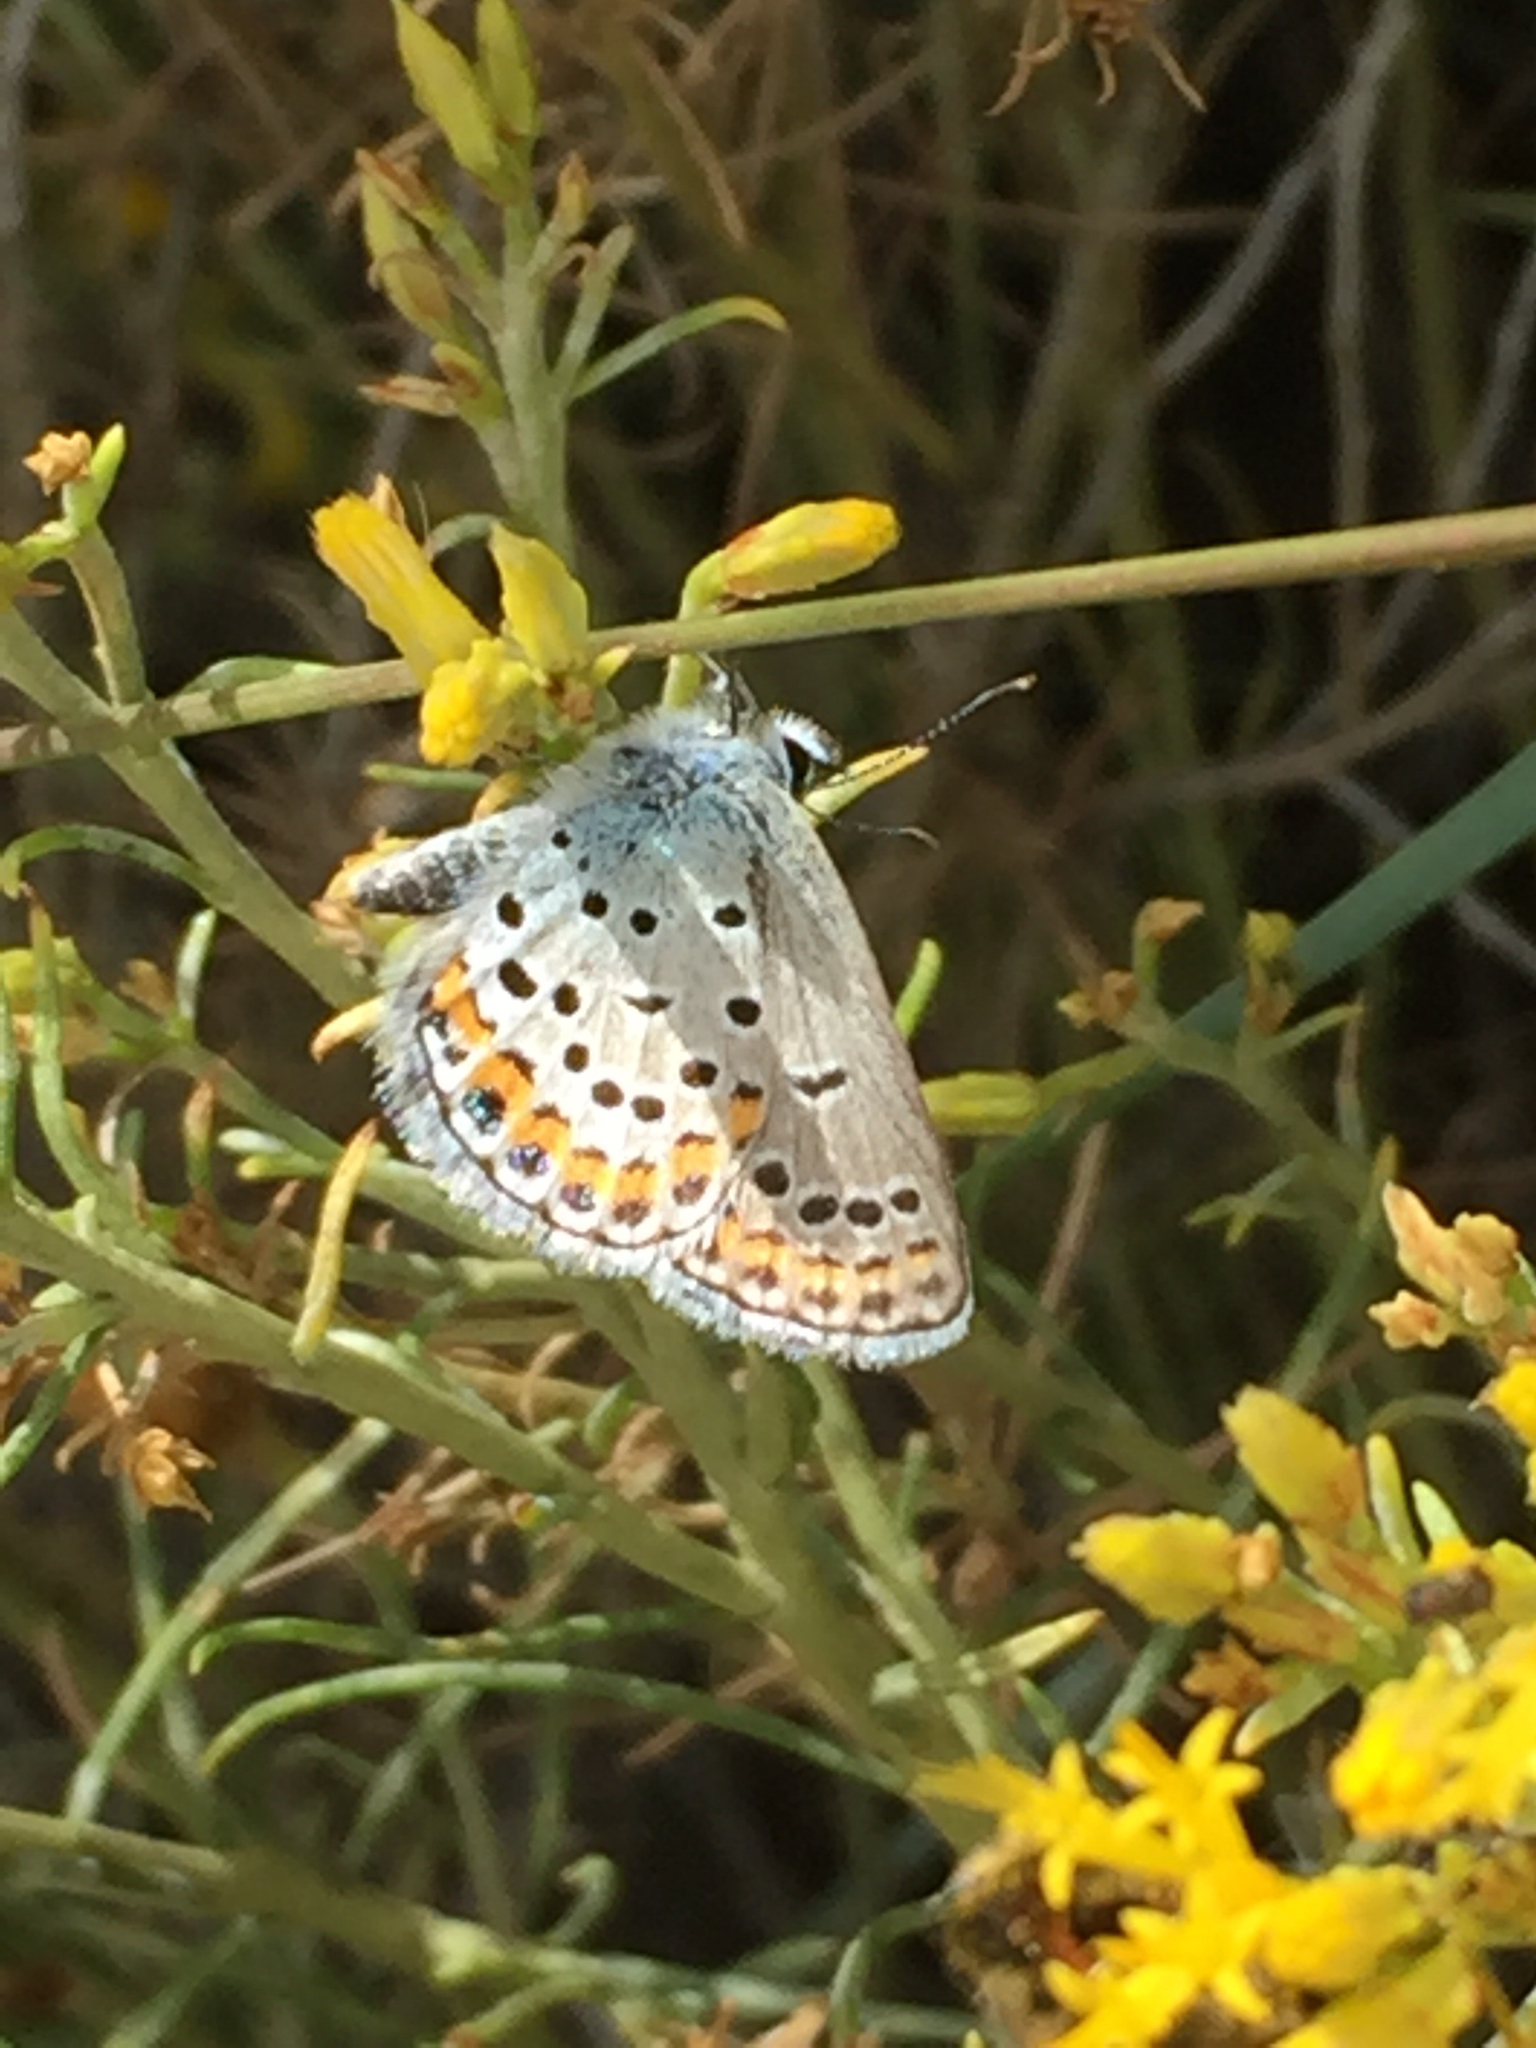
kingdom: Animalia
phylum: Arthropoda
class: Insecta
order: Lepidoptera
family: Lycaenidae
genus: Lycaeides
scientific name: Lycaeides melissa
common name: Melissa blue
